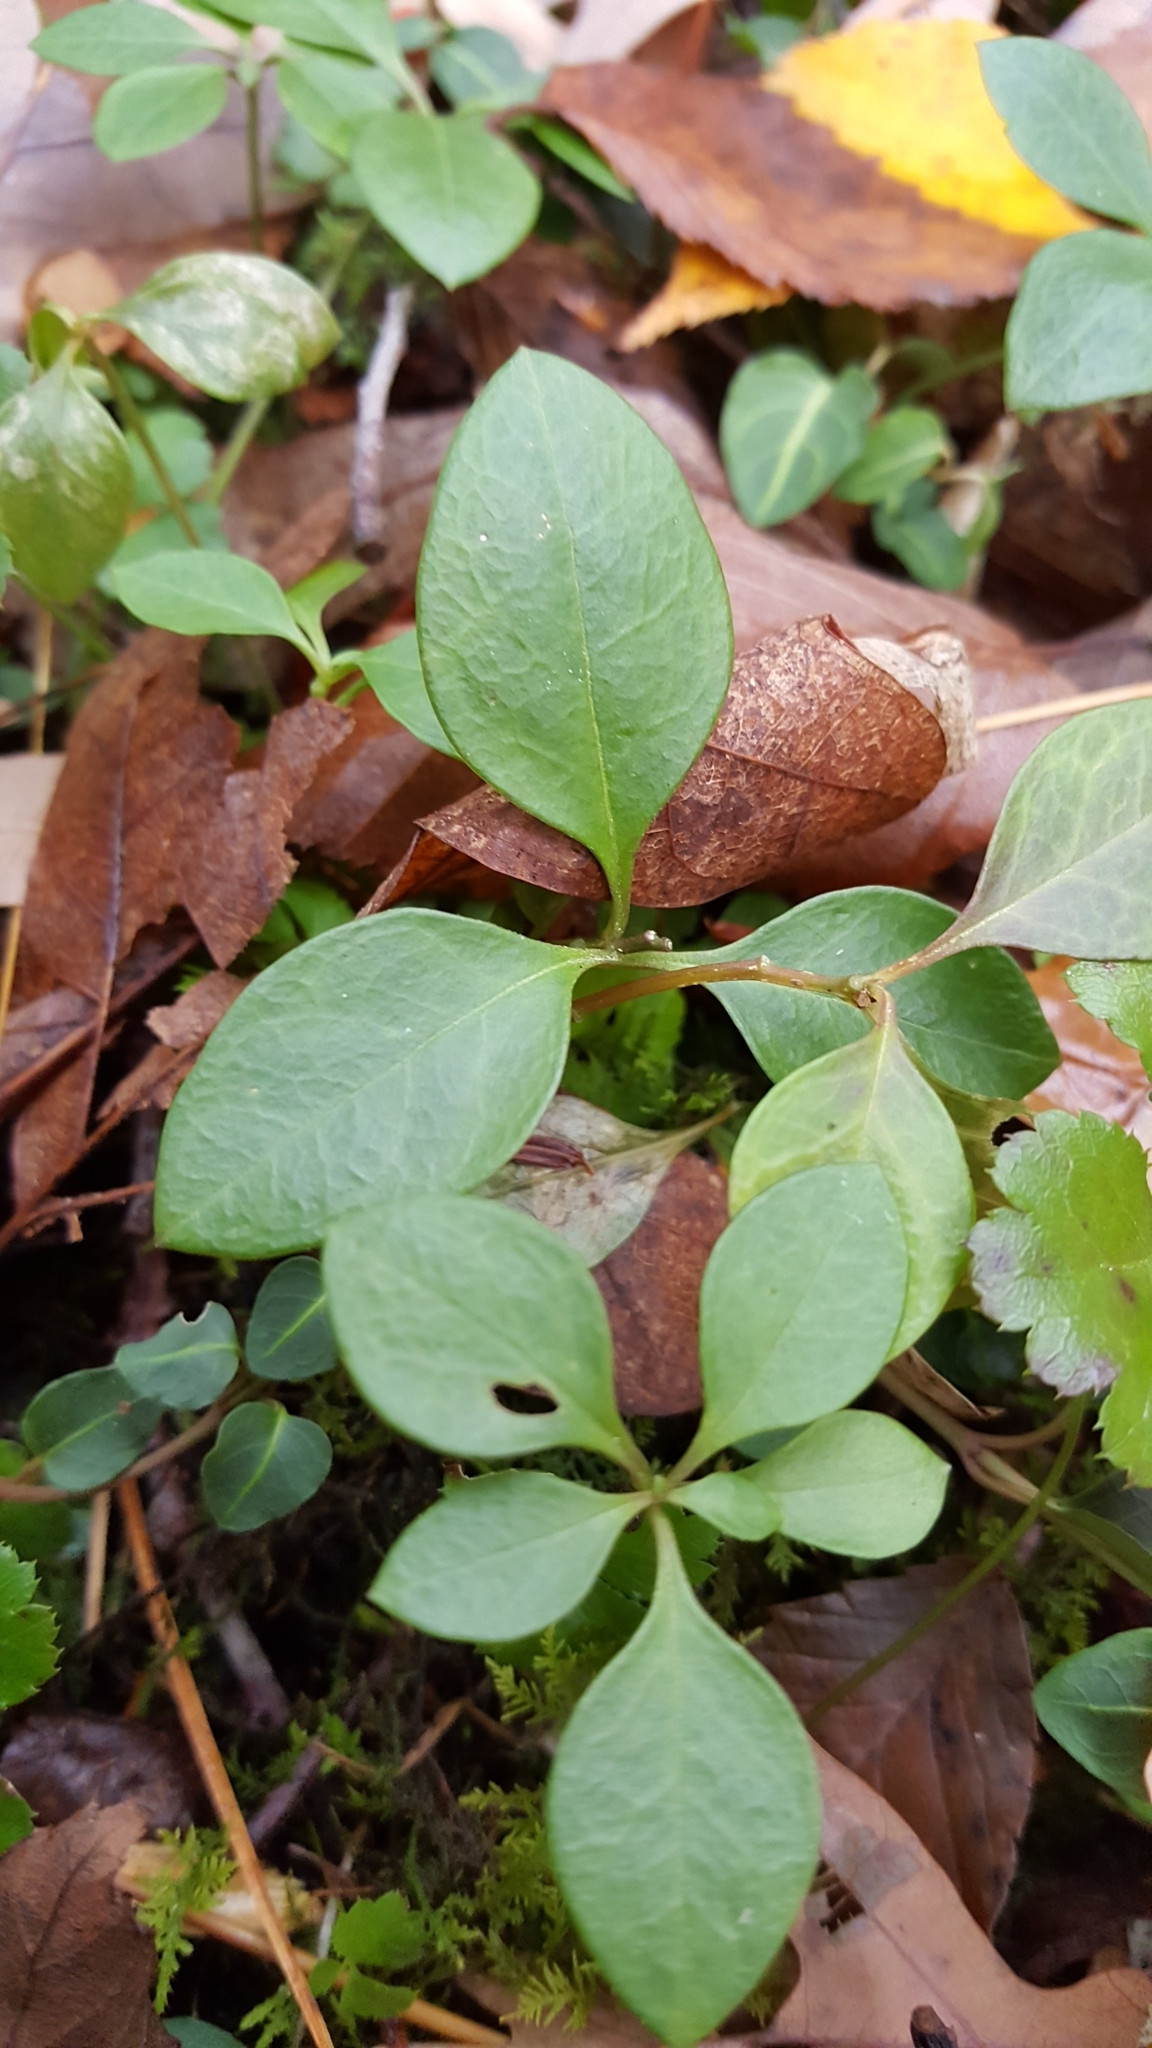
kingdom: Plantae
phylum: Tracheophyta
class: Magnoliopsida
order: Fabales
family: Polygalaceae
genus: Polygaloides
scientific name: Polygaloides paucifolia
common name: Bird-on-the-wing
